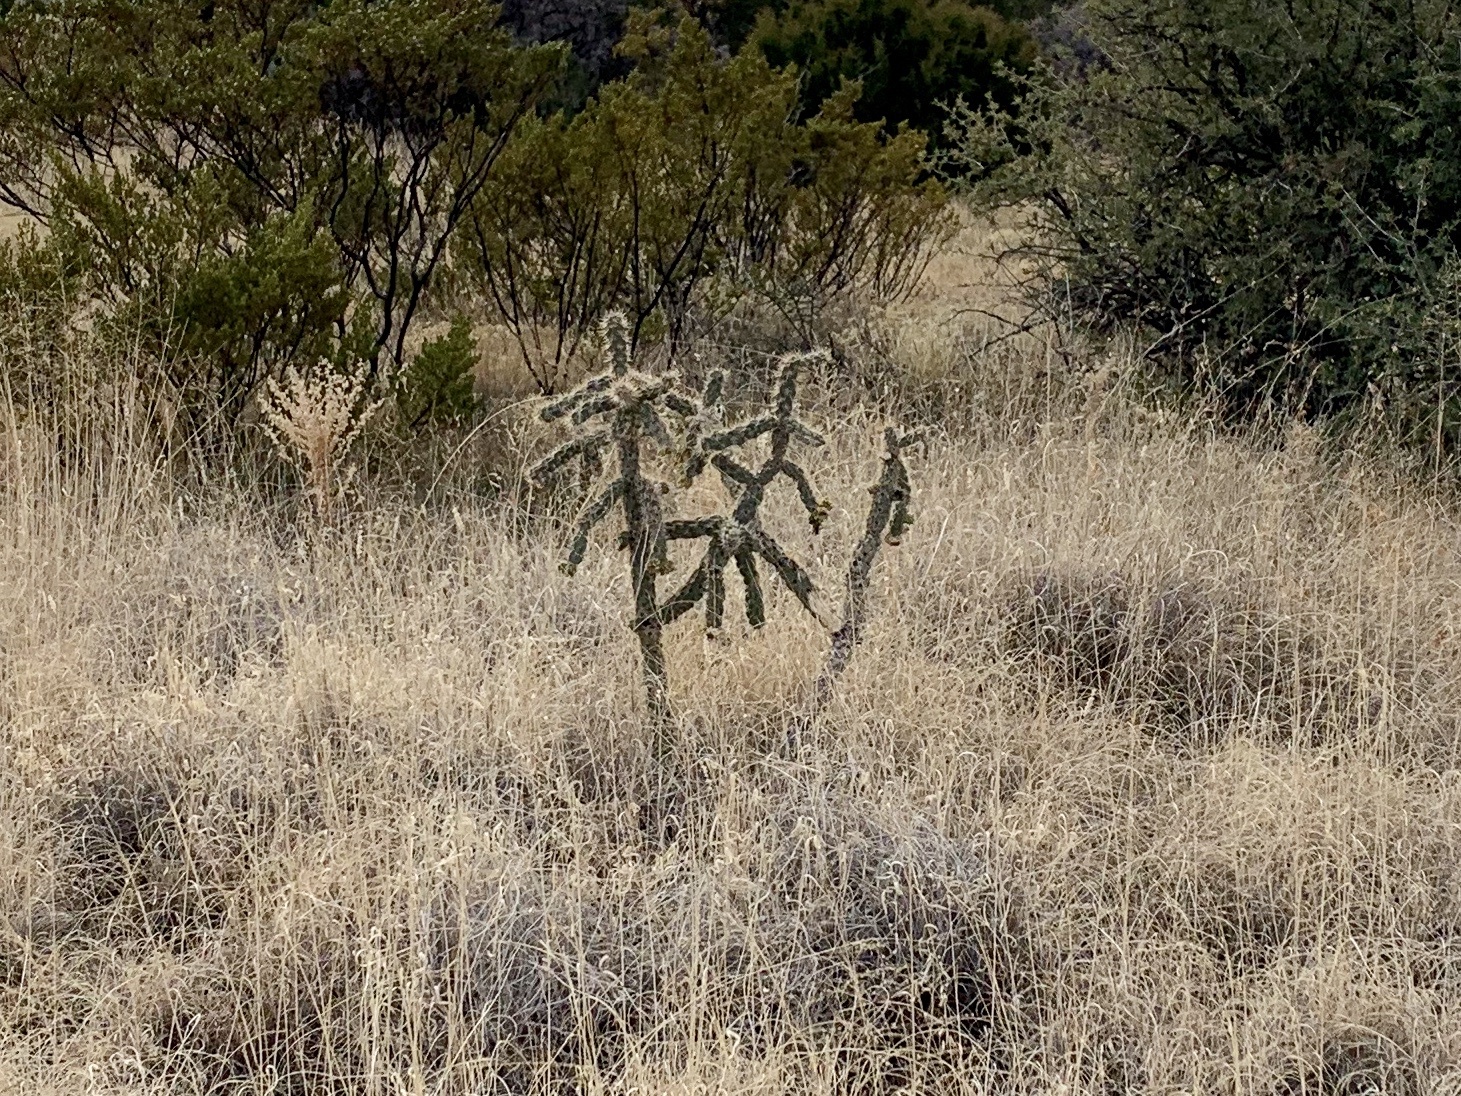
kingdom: Plantae
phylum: Tracheophyta
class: Magnoliopsida
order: Caryophyllales
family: Cactaceae
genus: Cylindropuntia
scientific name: Cylindropuntia imbricata
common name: Candelabrum cactus
